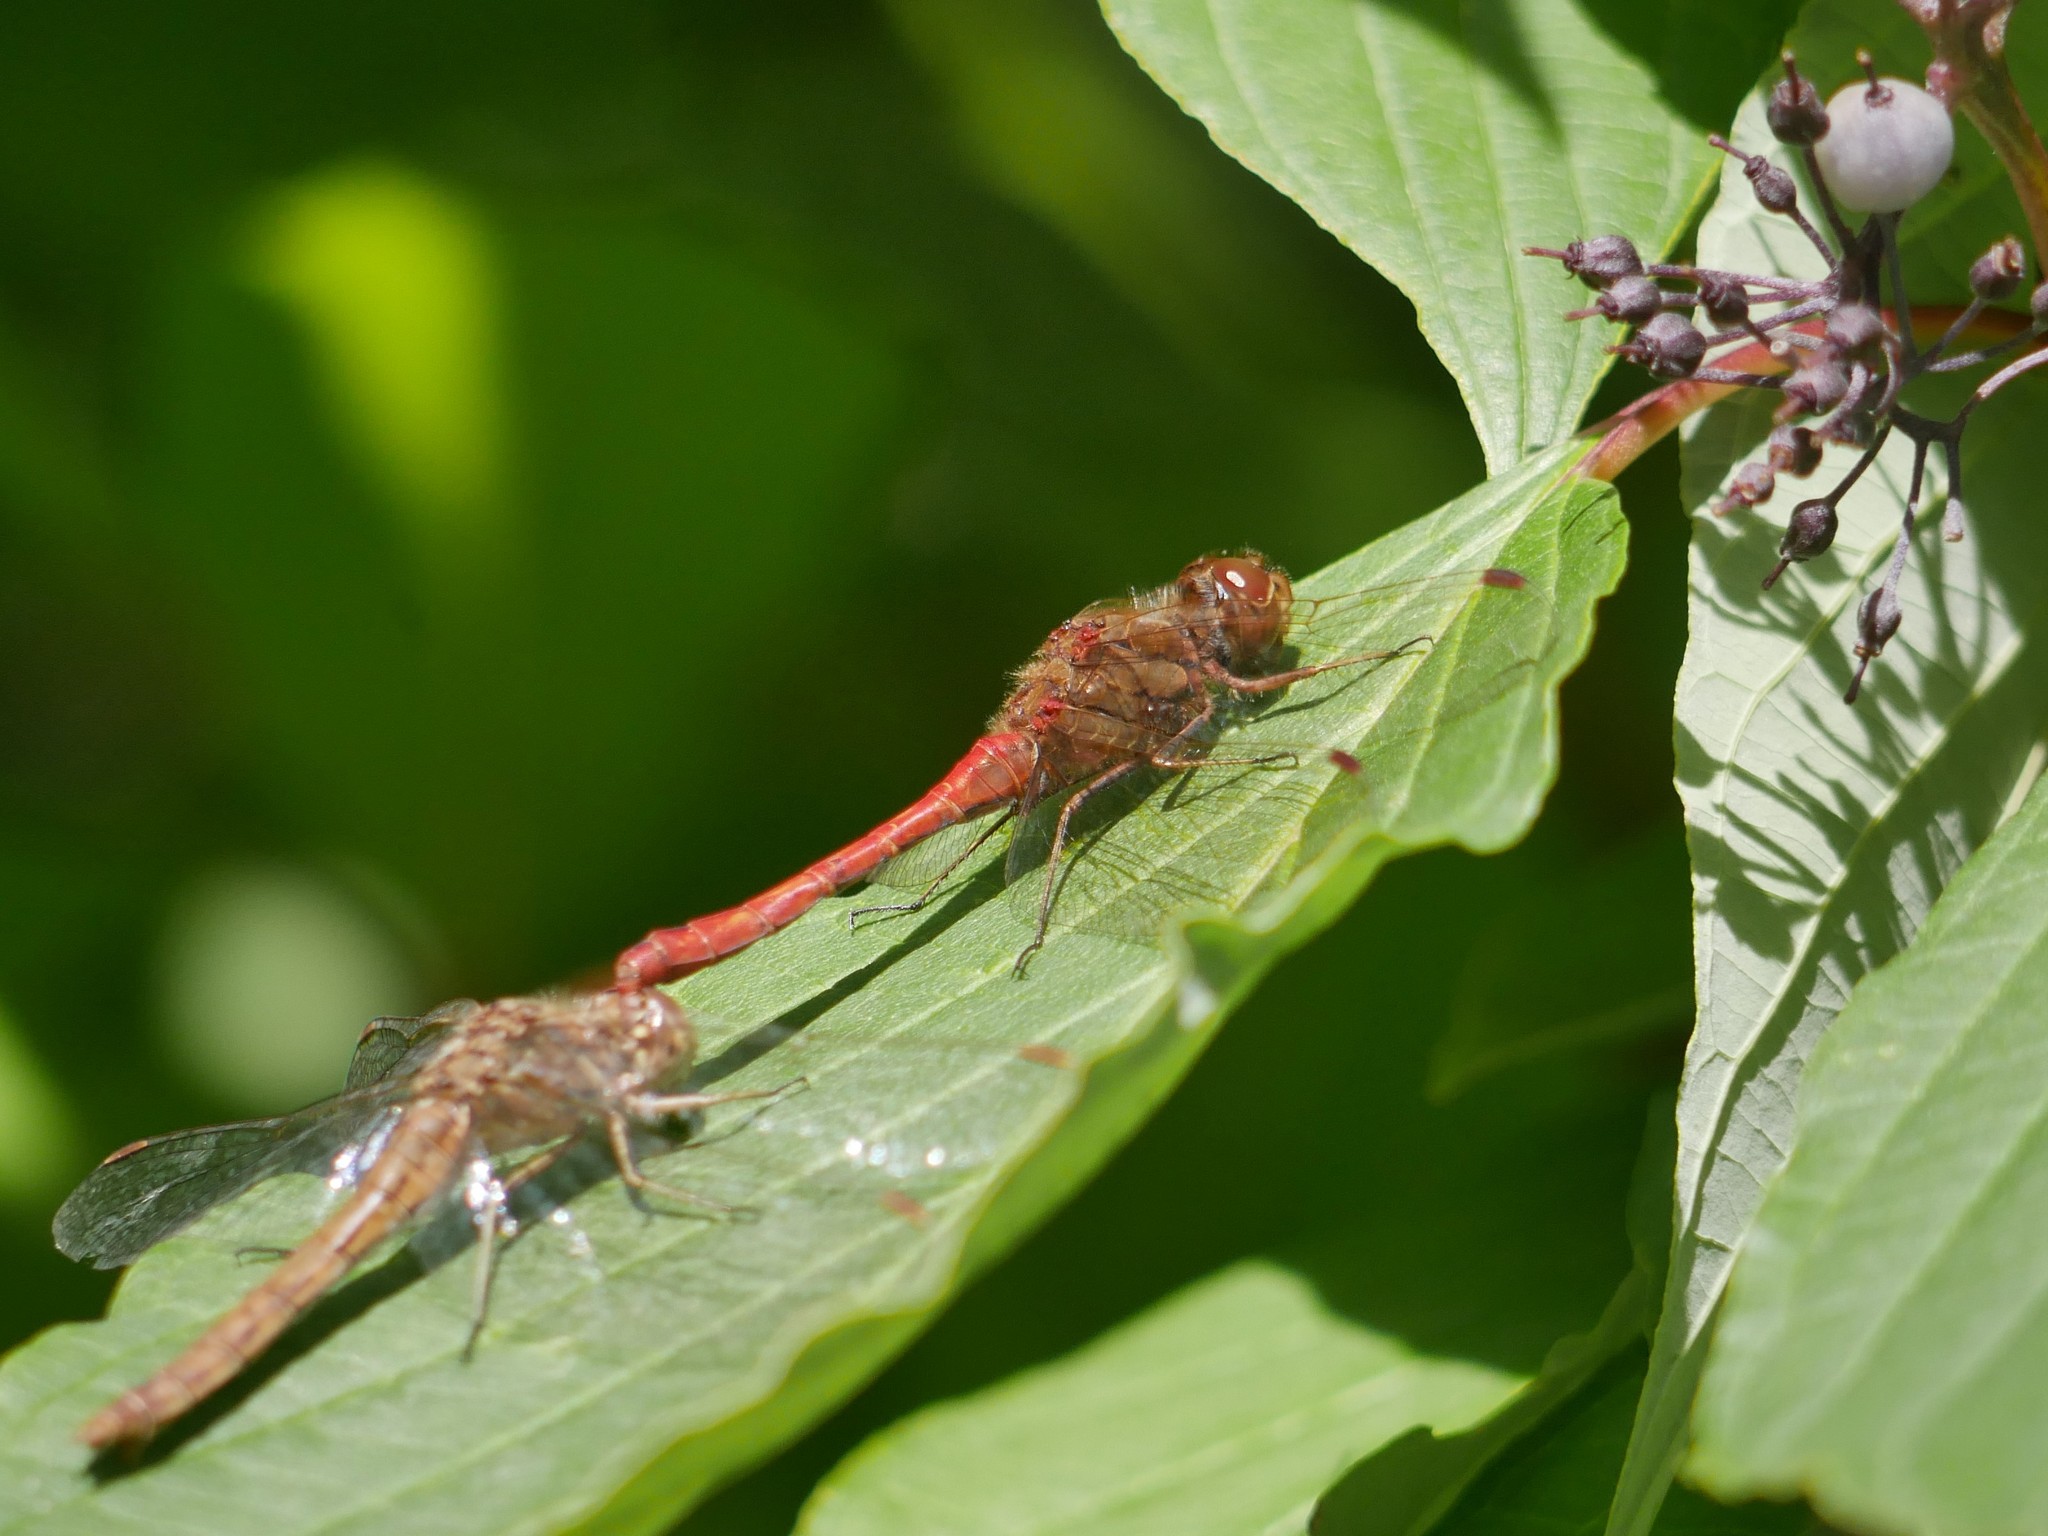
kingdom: Animalia
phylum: Arthropoda
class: Insecta
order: Odonata
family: Libellulidae
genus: Sympetrum
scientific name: Sympetrum vulgatum
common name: Vagrant darter
